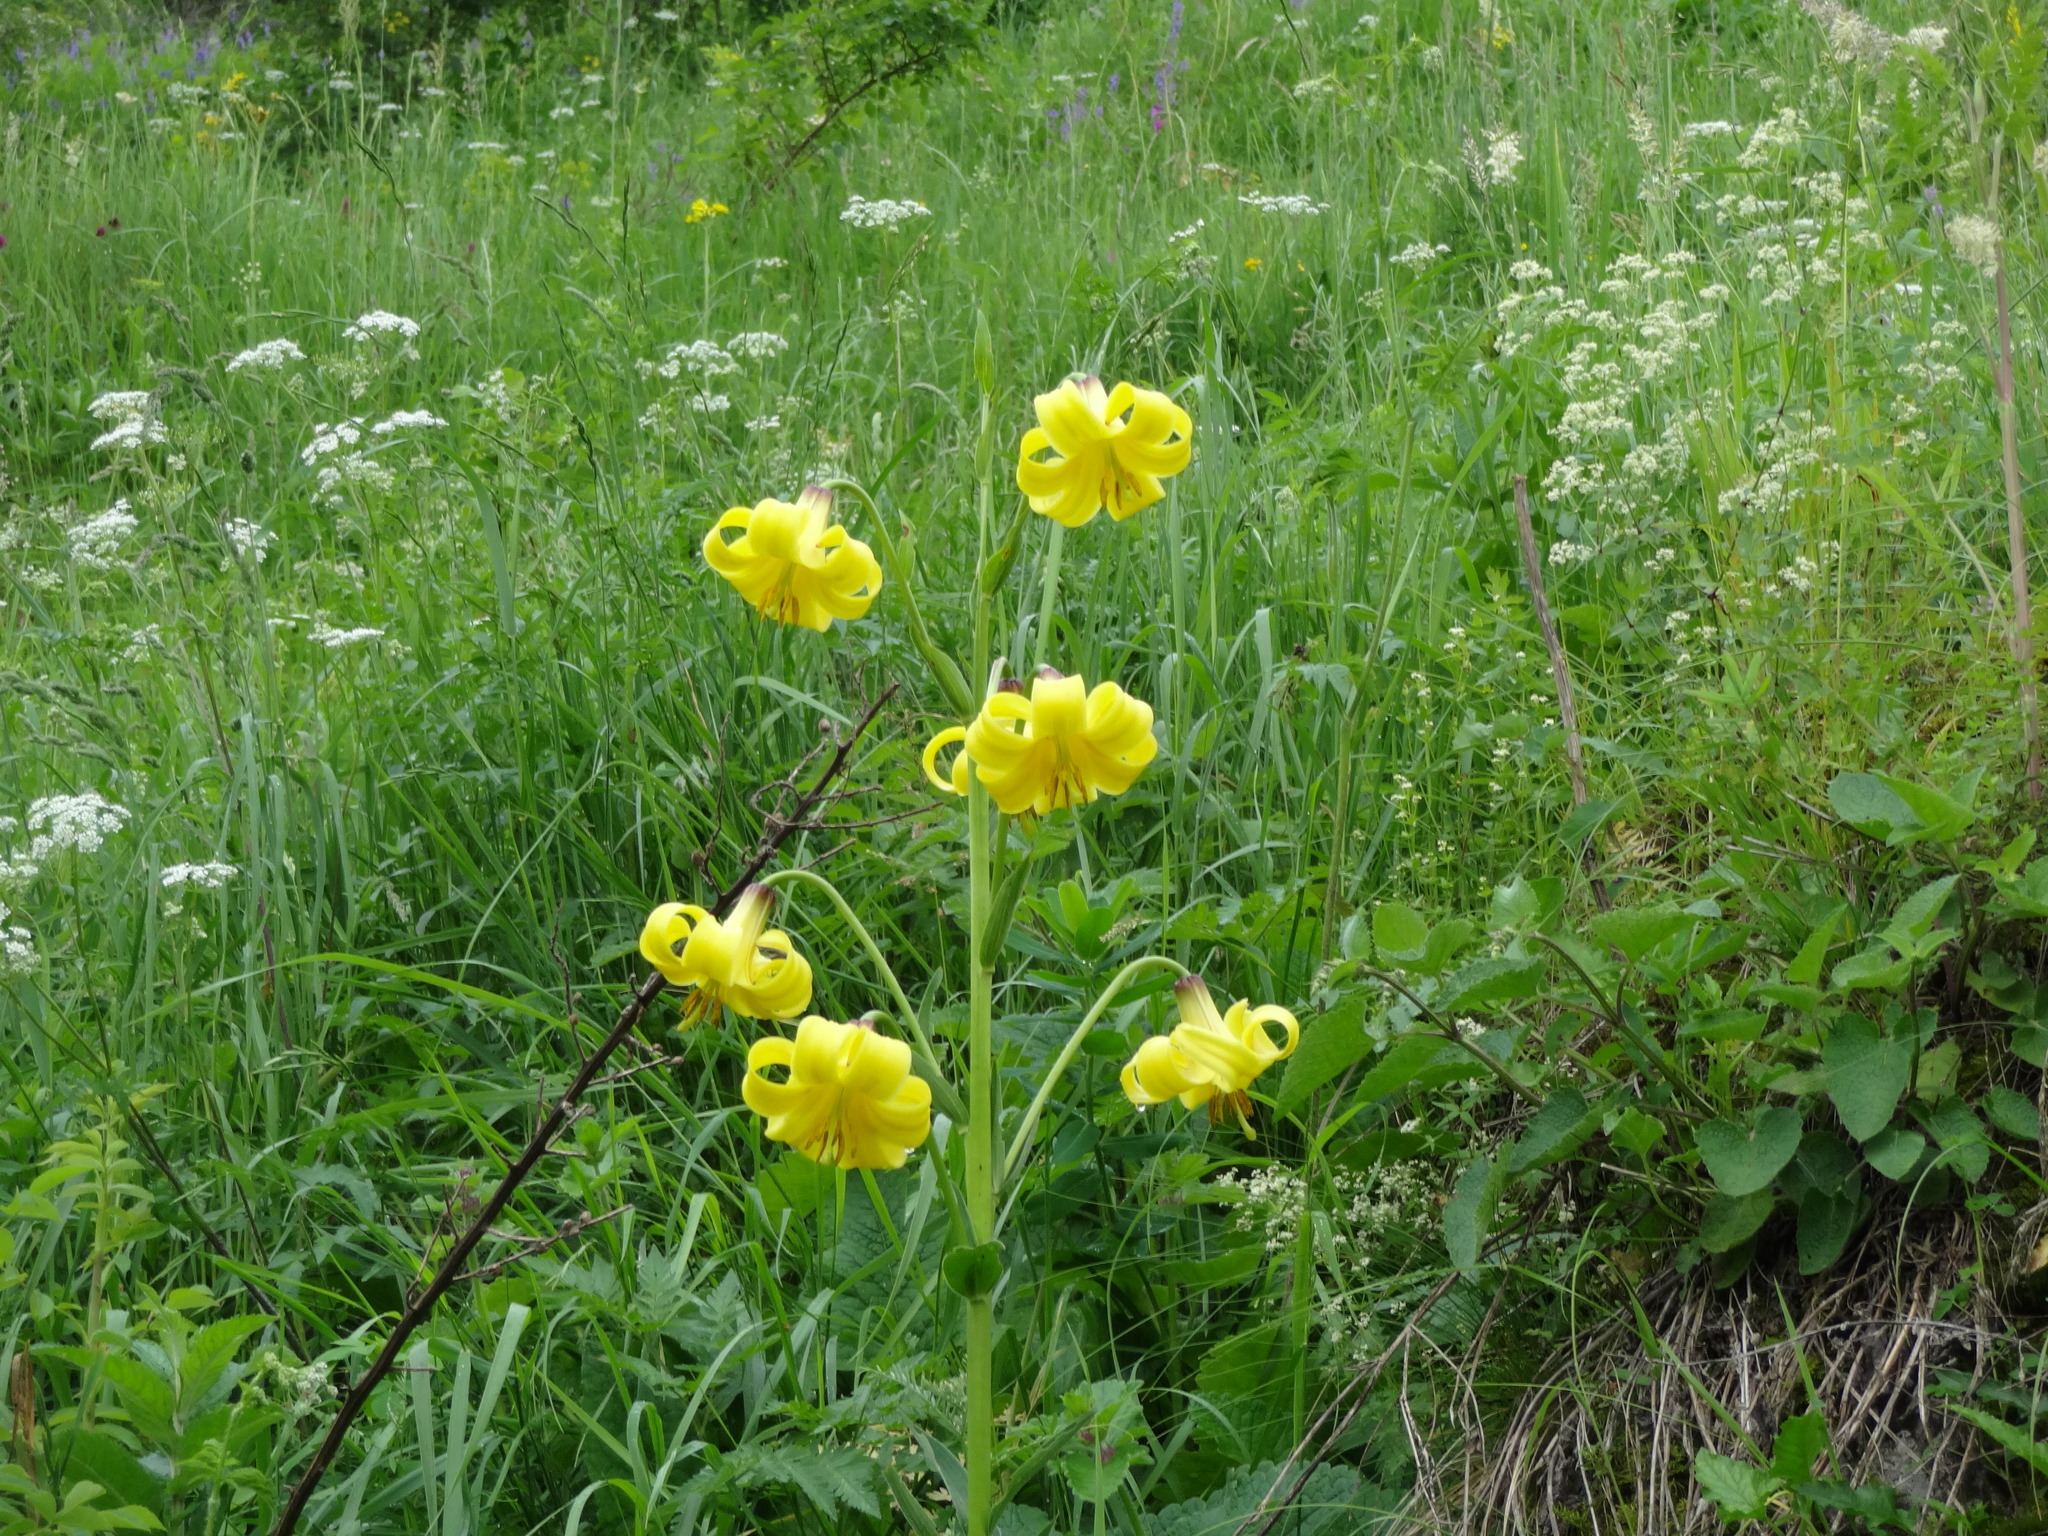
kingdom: Plantae
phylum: Tracheophyta
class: Liliopsida
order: Liliales
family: Liliaceae
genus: Lilium
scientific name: Lilium monadelphum
